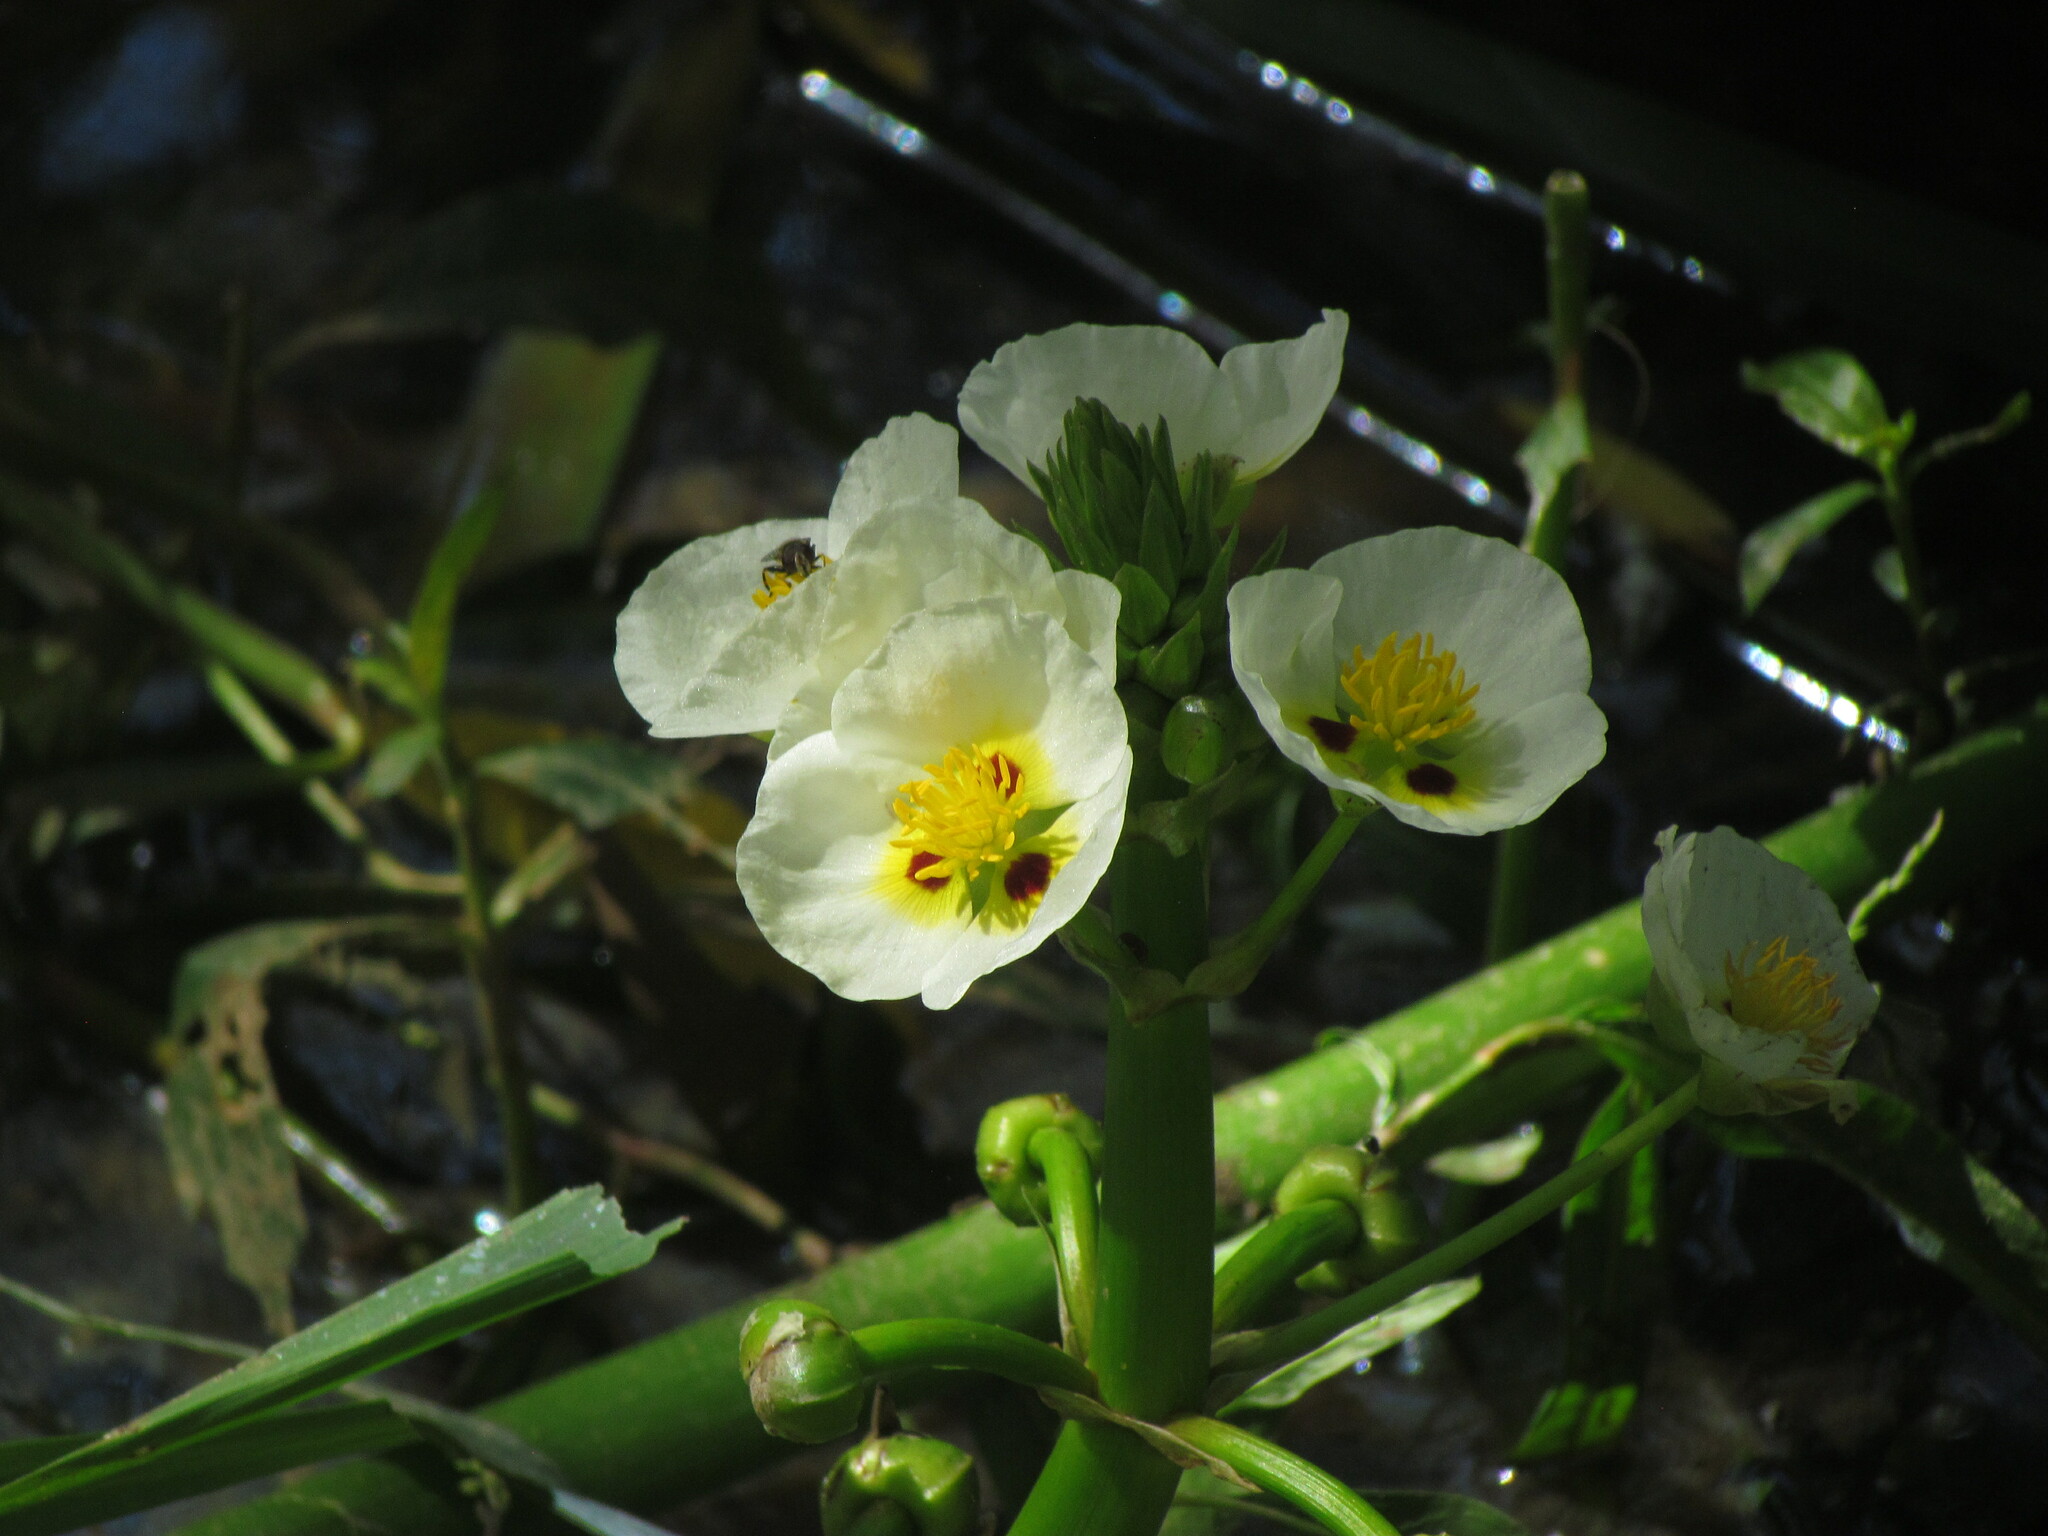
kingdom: Plantae
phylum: Tracheophyta
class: Liliopsida
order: Alismatales
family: Alismataceae
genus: Sagittaria
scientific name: Sagittaria montevidensis
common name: Giant arrowhead
